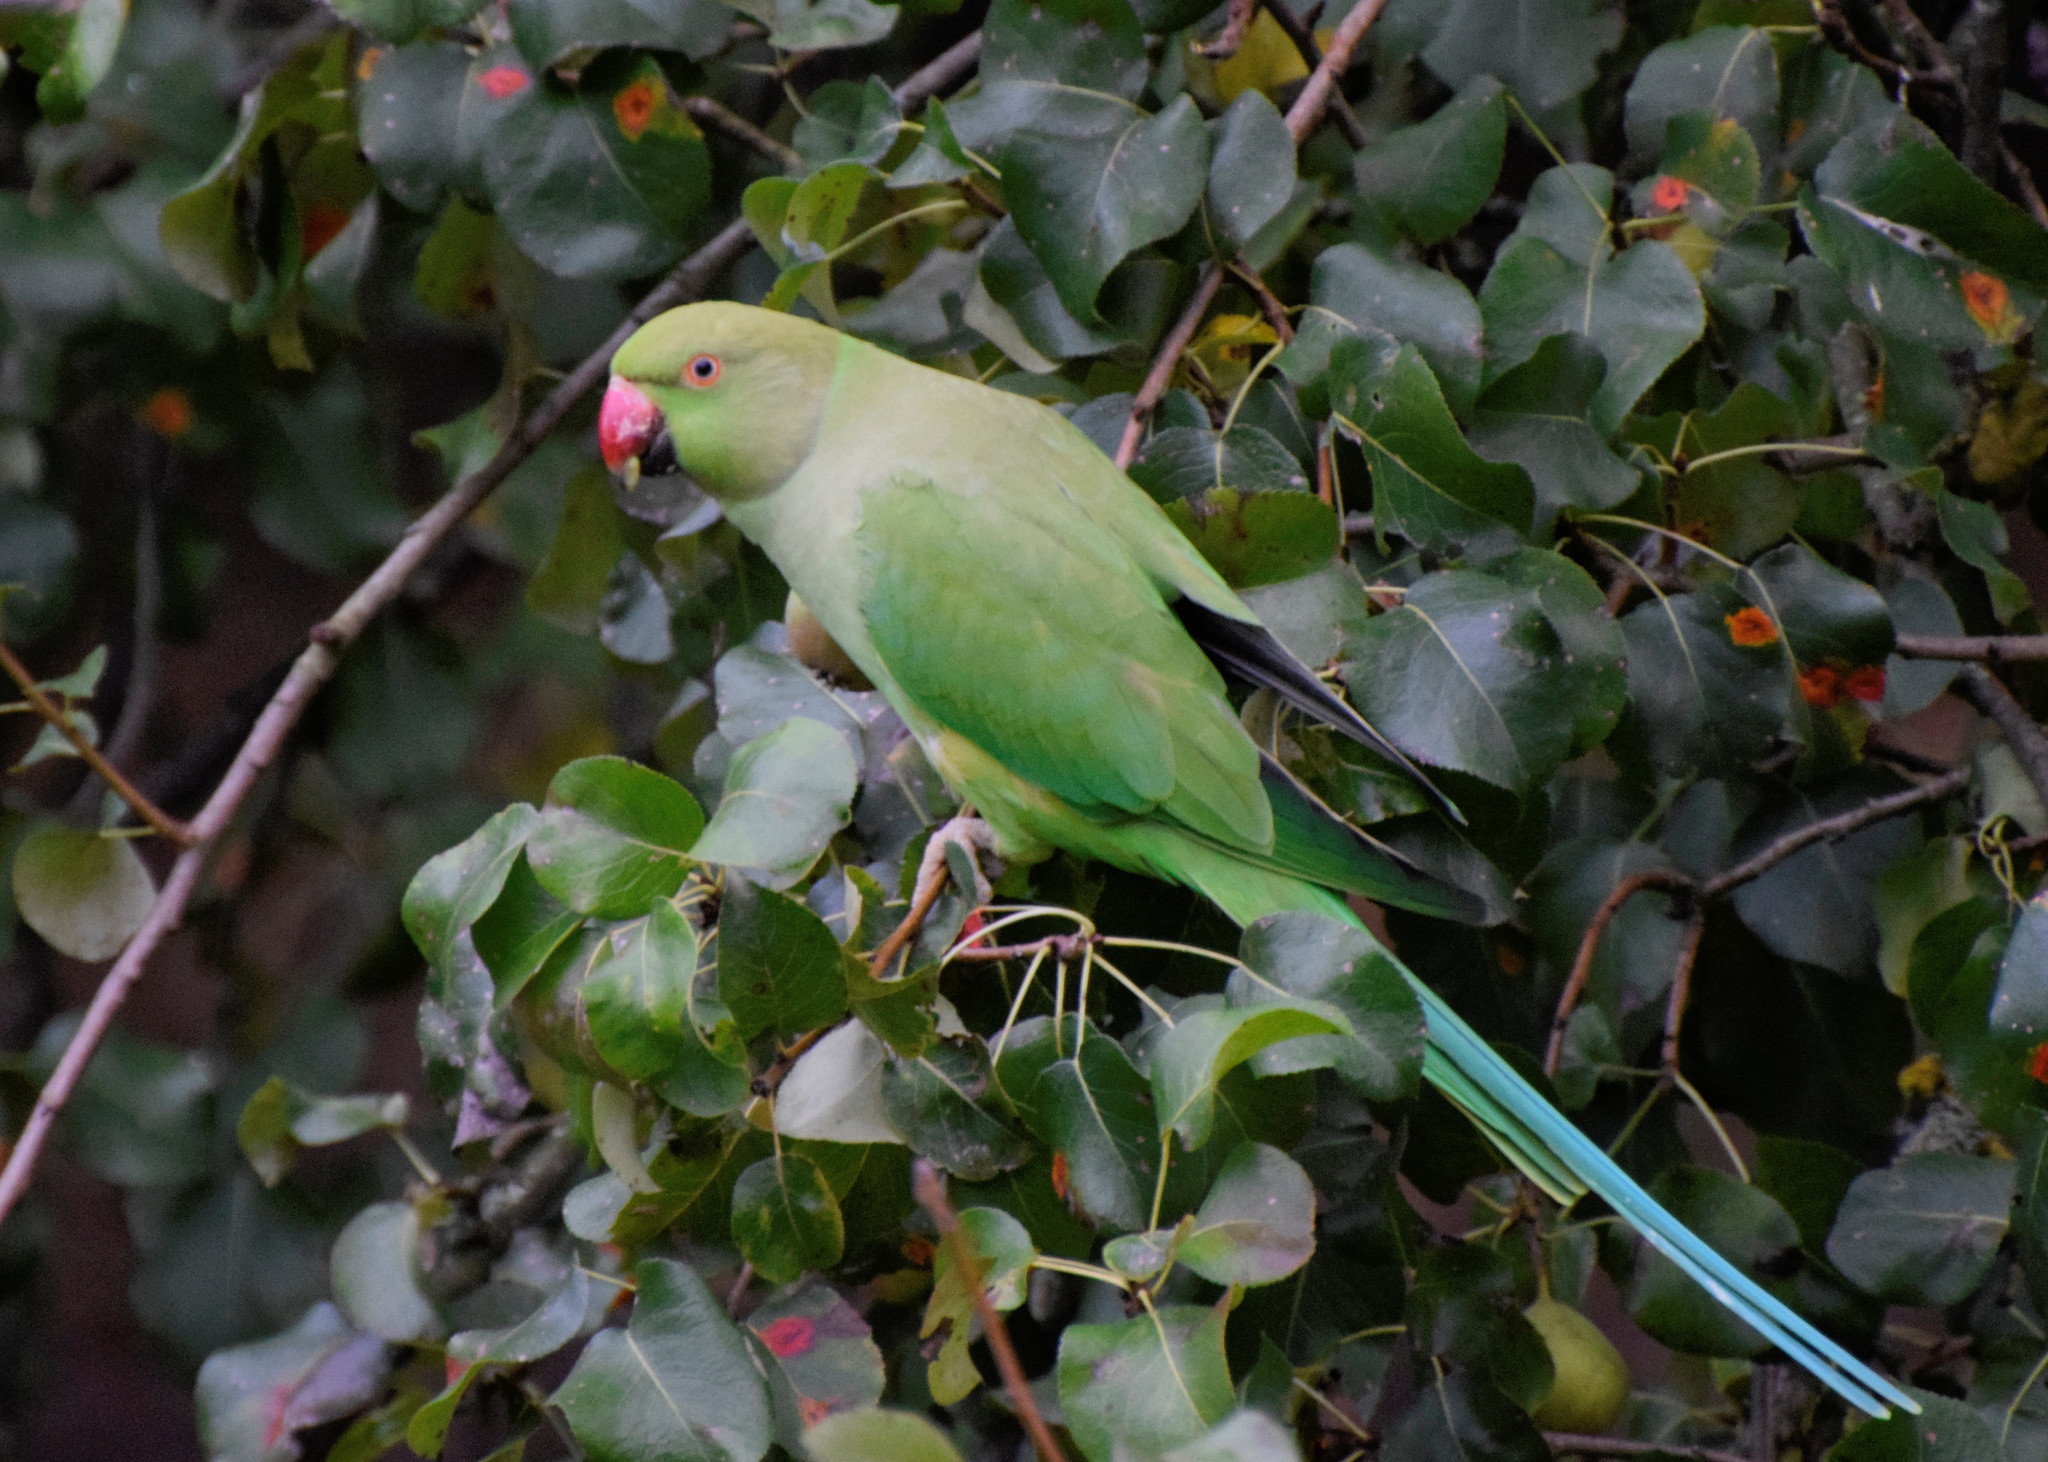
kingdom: Animalia
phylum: Chordata
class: Aves
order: Psittaciformes
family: Psittacidae
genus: Psittacula
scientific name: Psittacula krameri
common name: Rose-ringed parakeet
